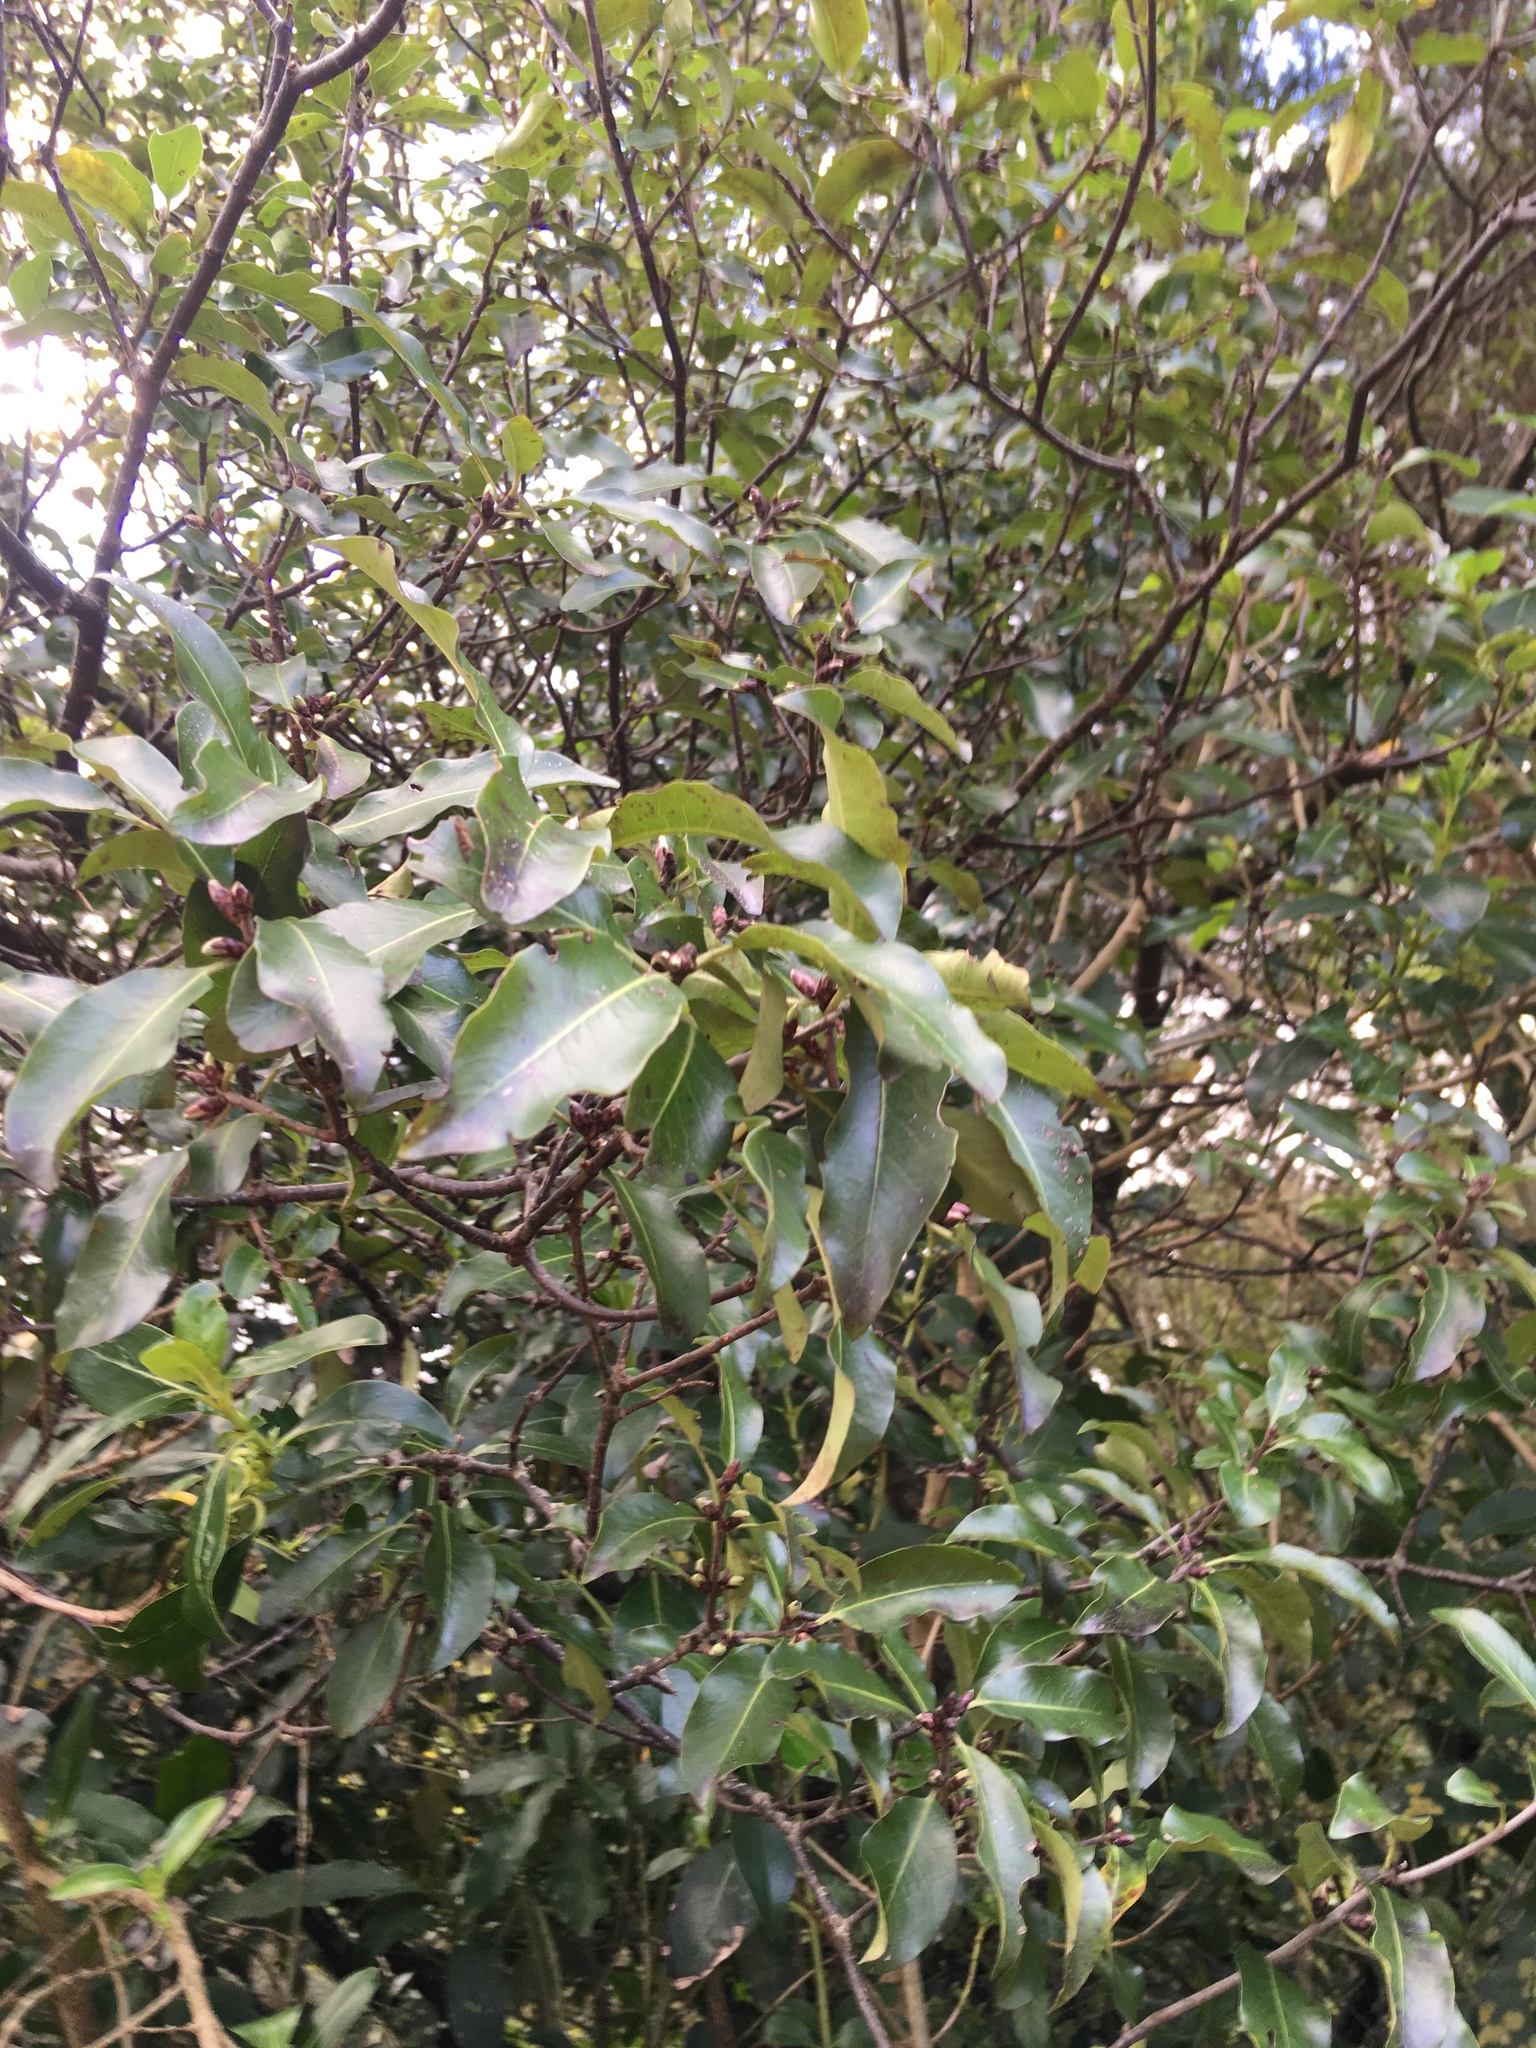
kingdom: Plantae
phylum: Tracheophyta
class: Magnoliopsida
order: Apiales
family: Pittosporaceae
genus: Pittosporum
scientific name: Pittosporum tenuifolium
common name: Kohuhu
